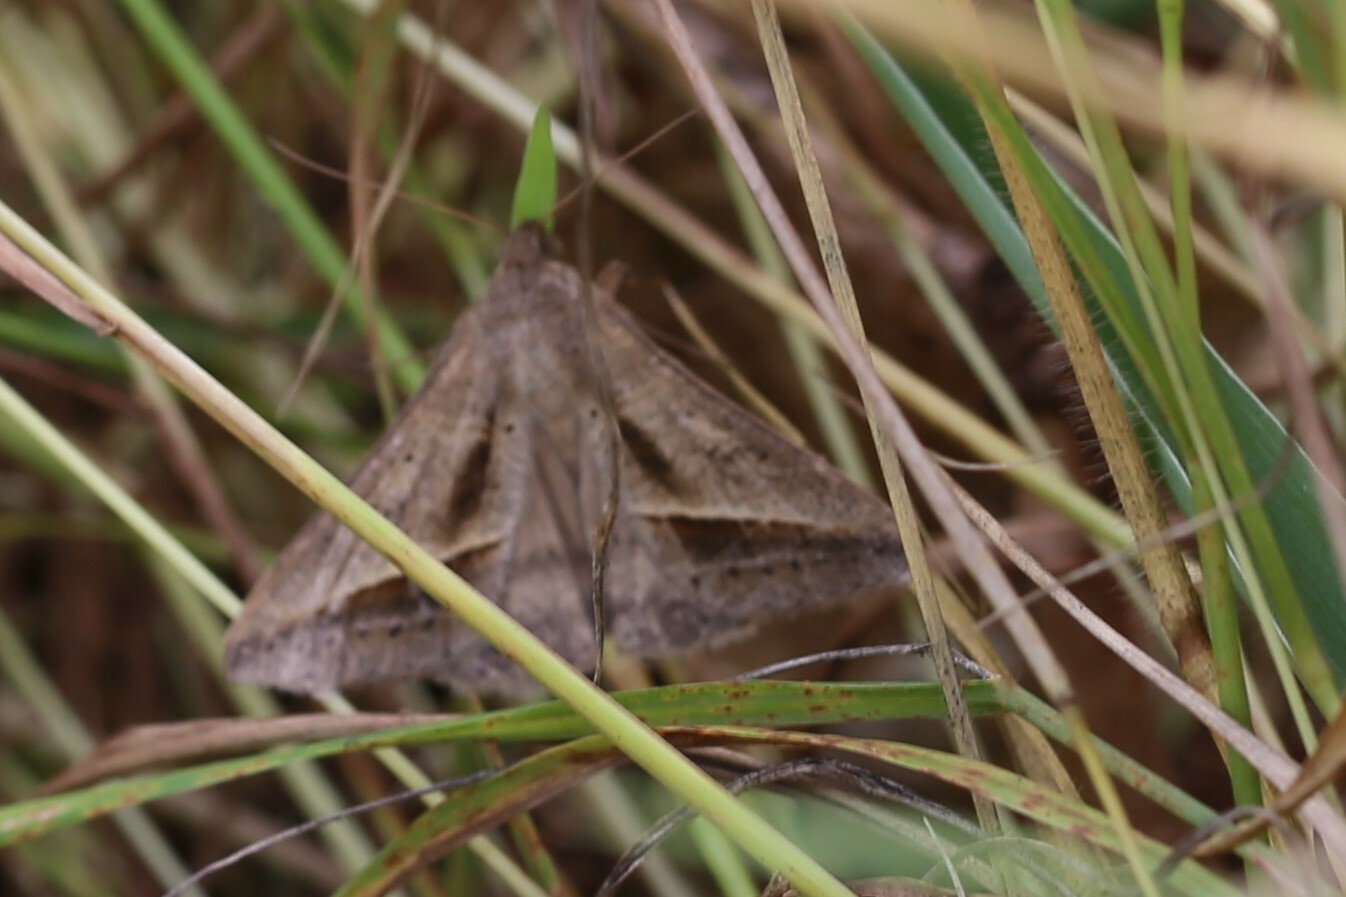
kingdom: Animalia
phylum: Arthropoda
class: Insecta
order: Lepidoptera
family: Erebidae
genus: Mocis
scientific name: Mocis frugalis
